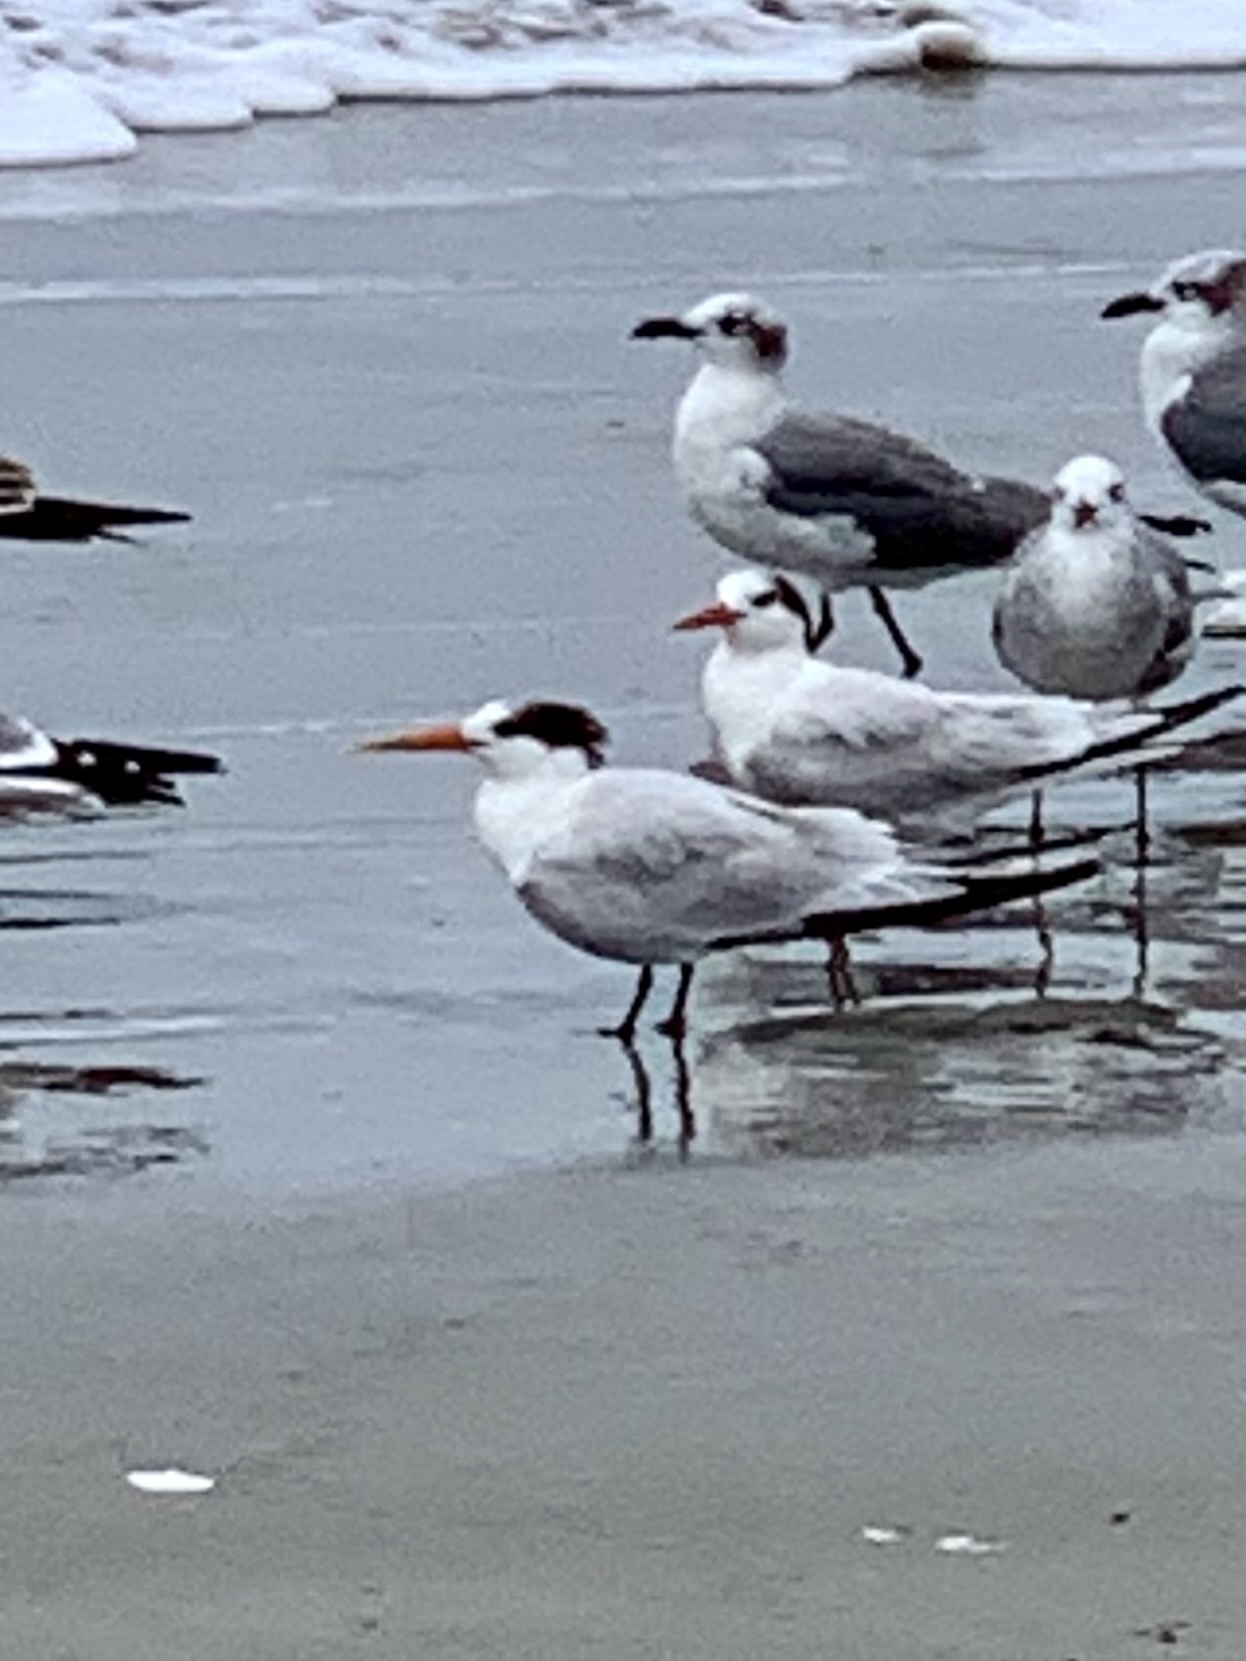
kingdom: Animalia
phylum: Chordata
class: Aves
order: Charadriiformes
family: Laridae
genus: Thalasseus
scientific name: Thalasseus elegans
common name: Elegant tern
